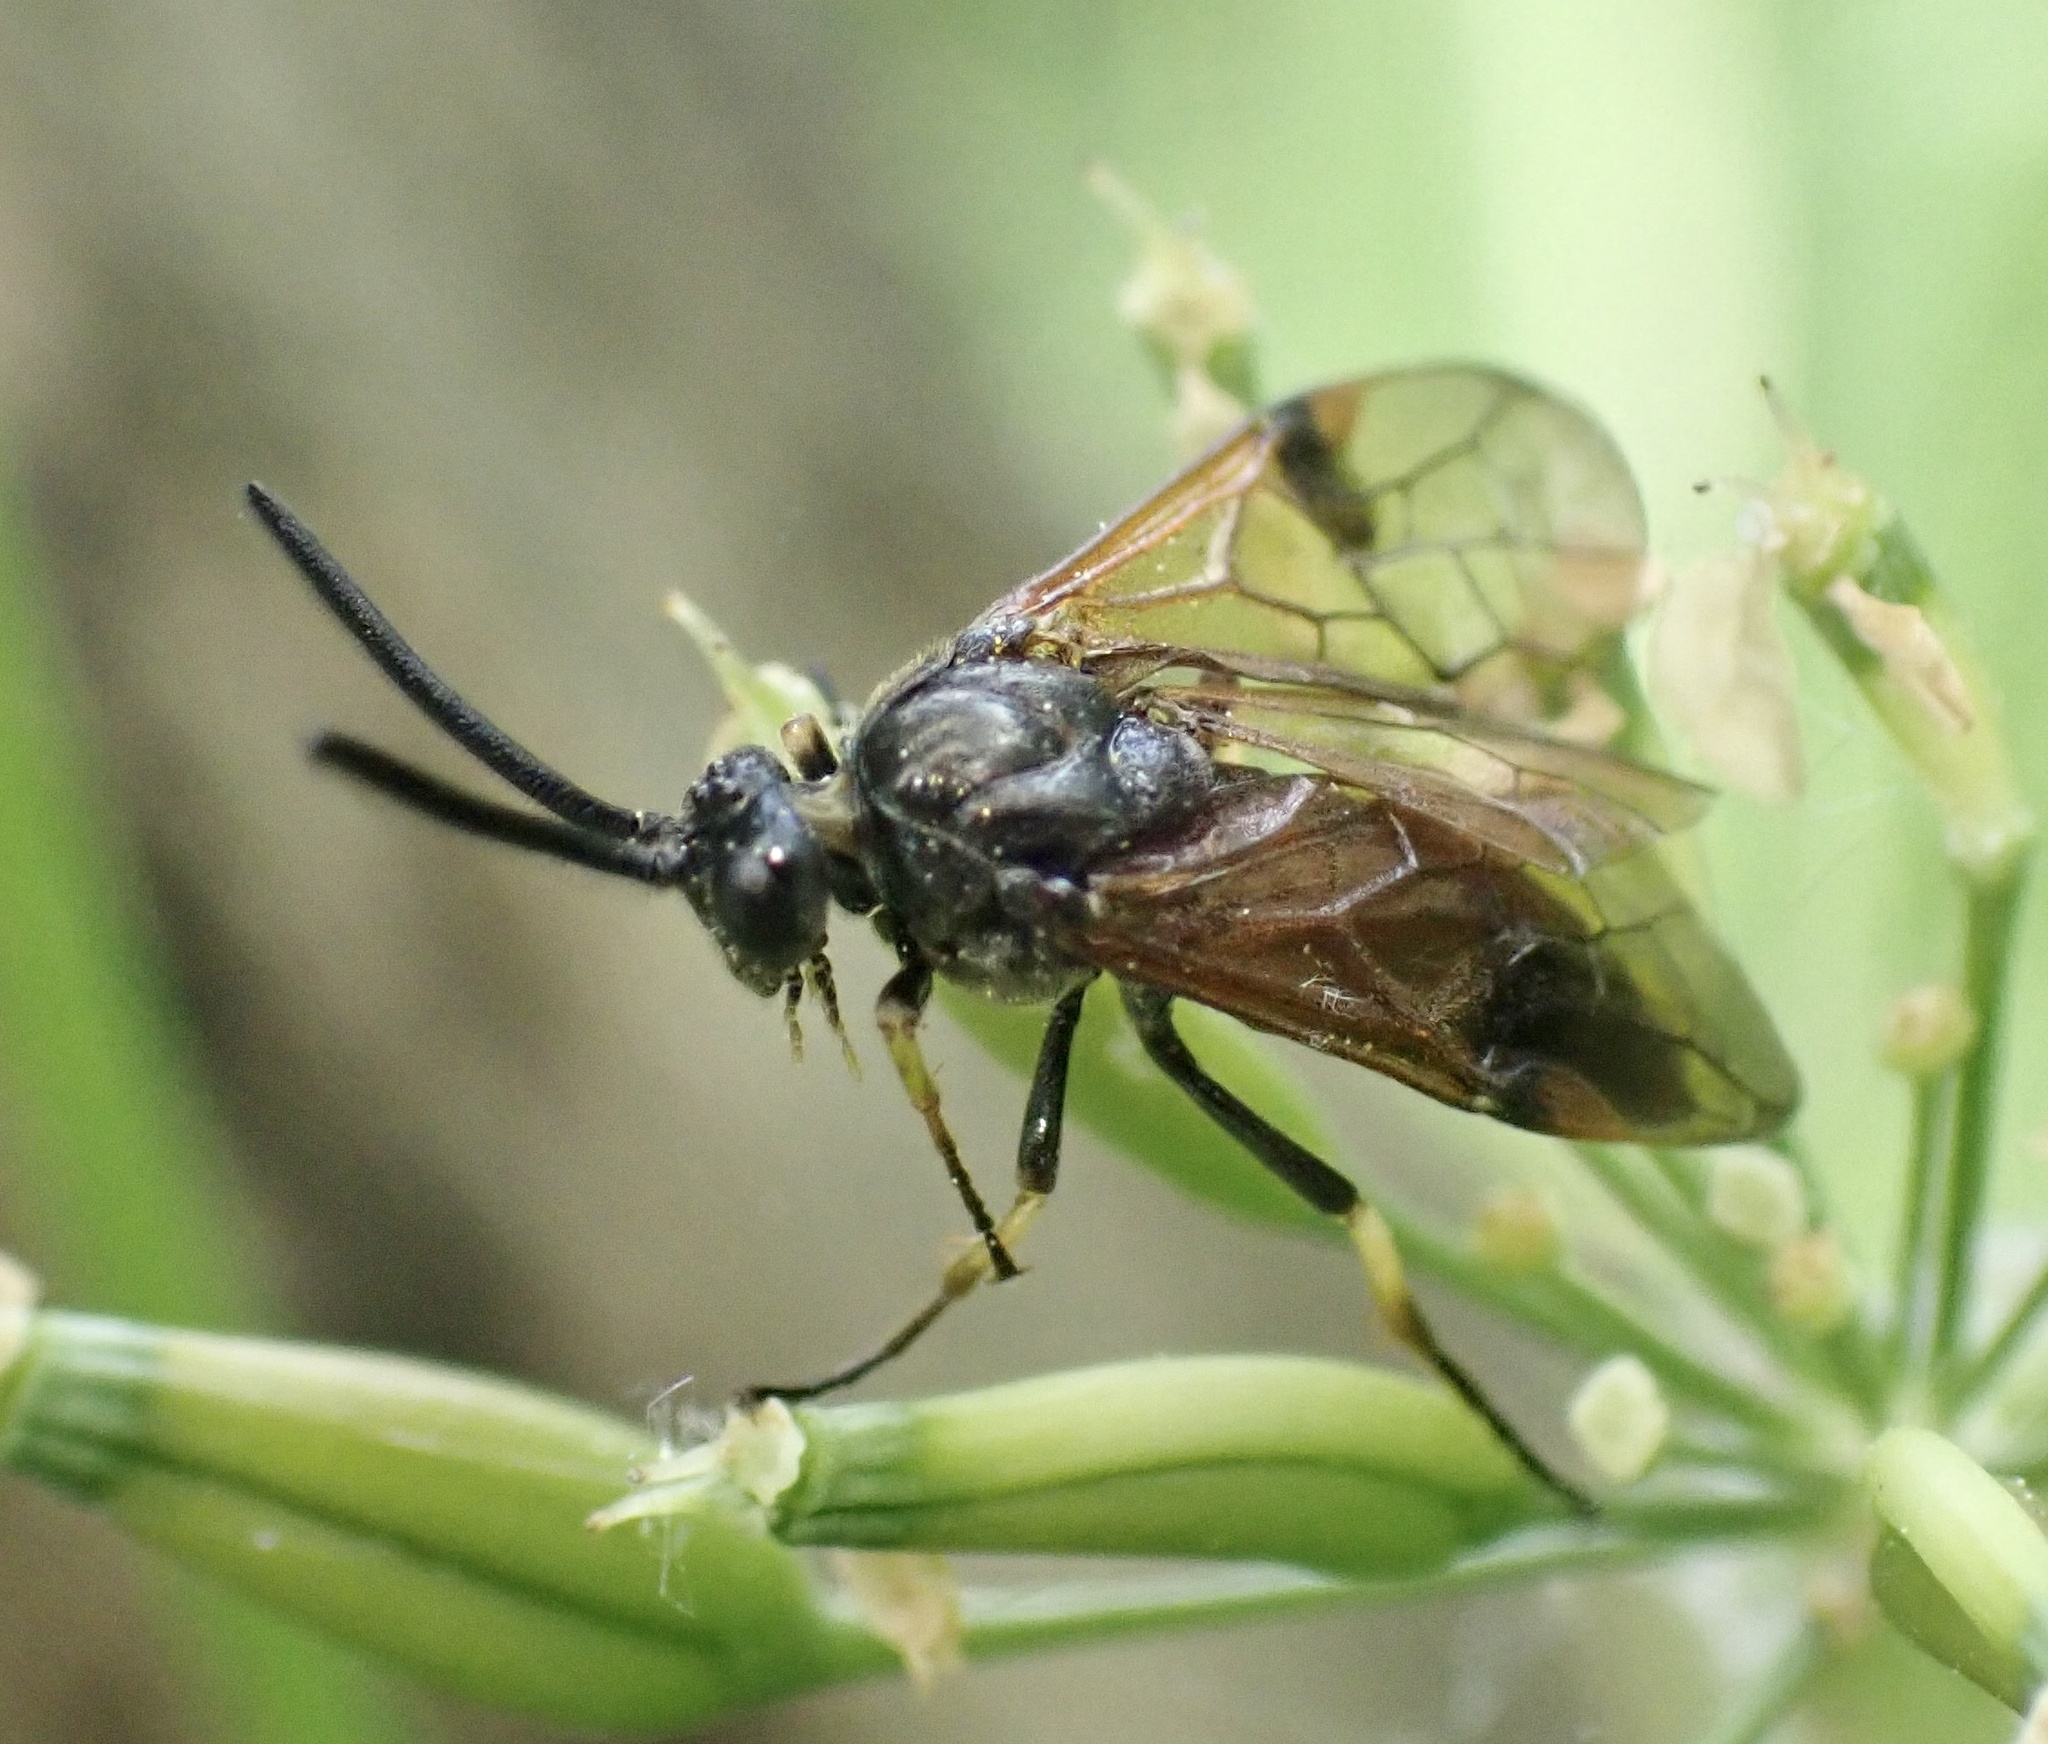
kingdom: Animalia
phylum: Arthropoda
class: Insecta
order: Hymenoptera
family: Argidae
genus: Arge
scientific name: Arge ustulata
